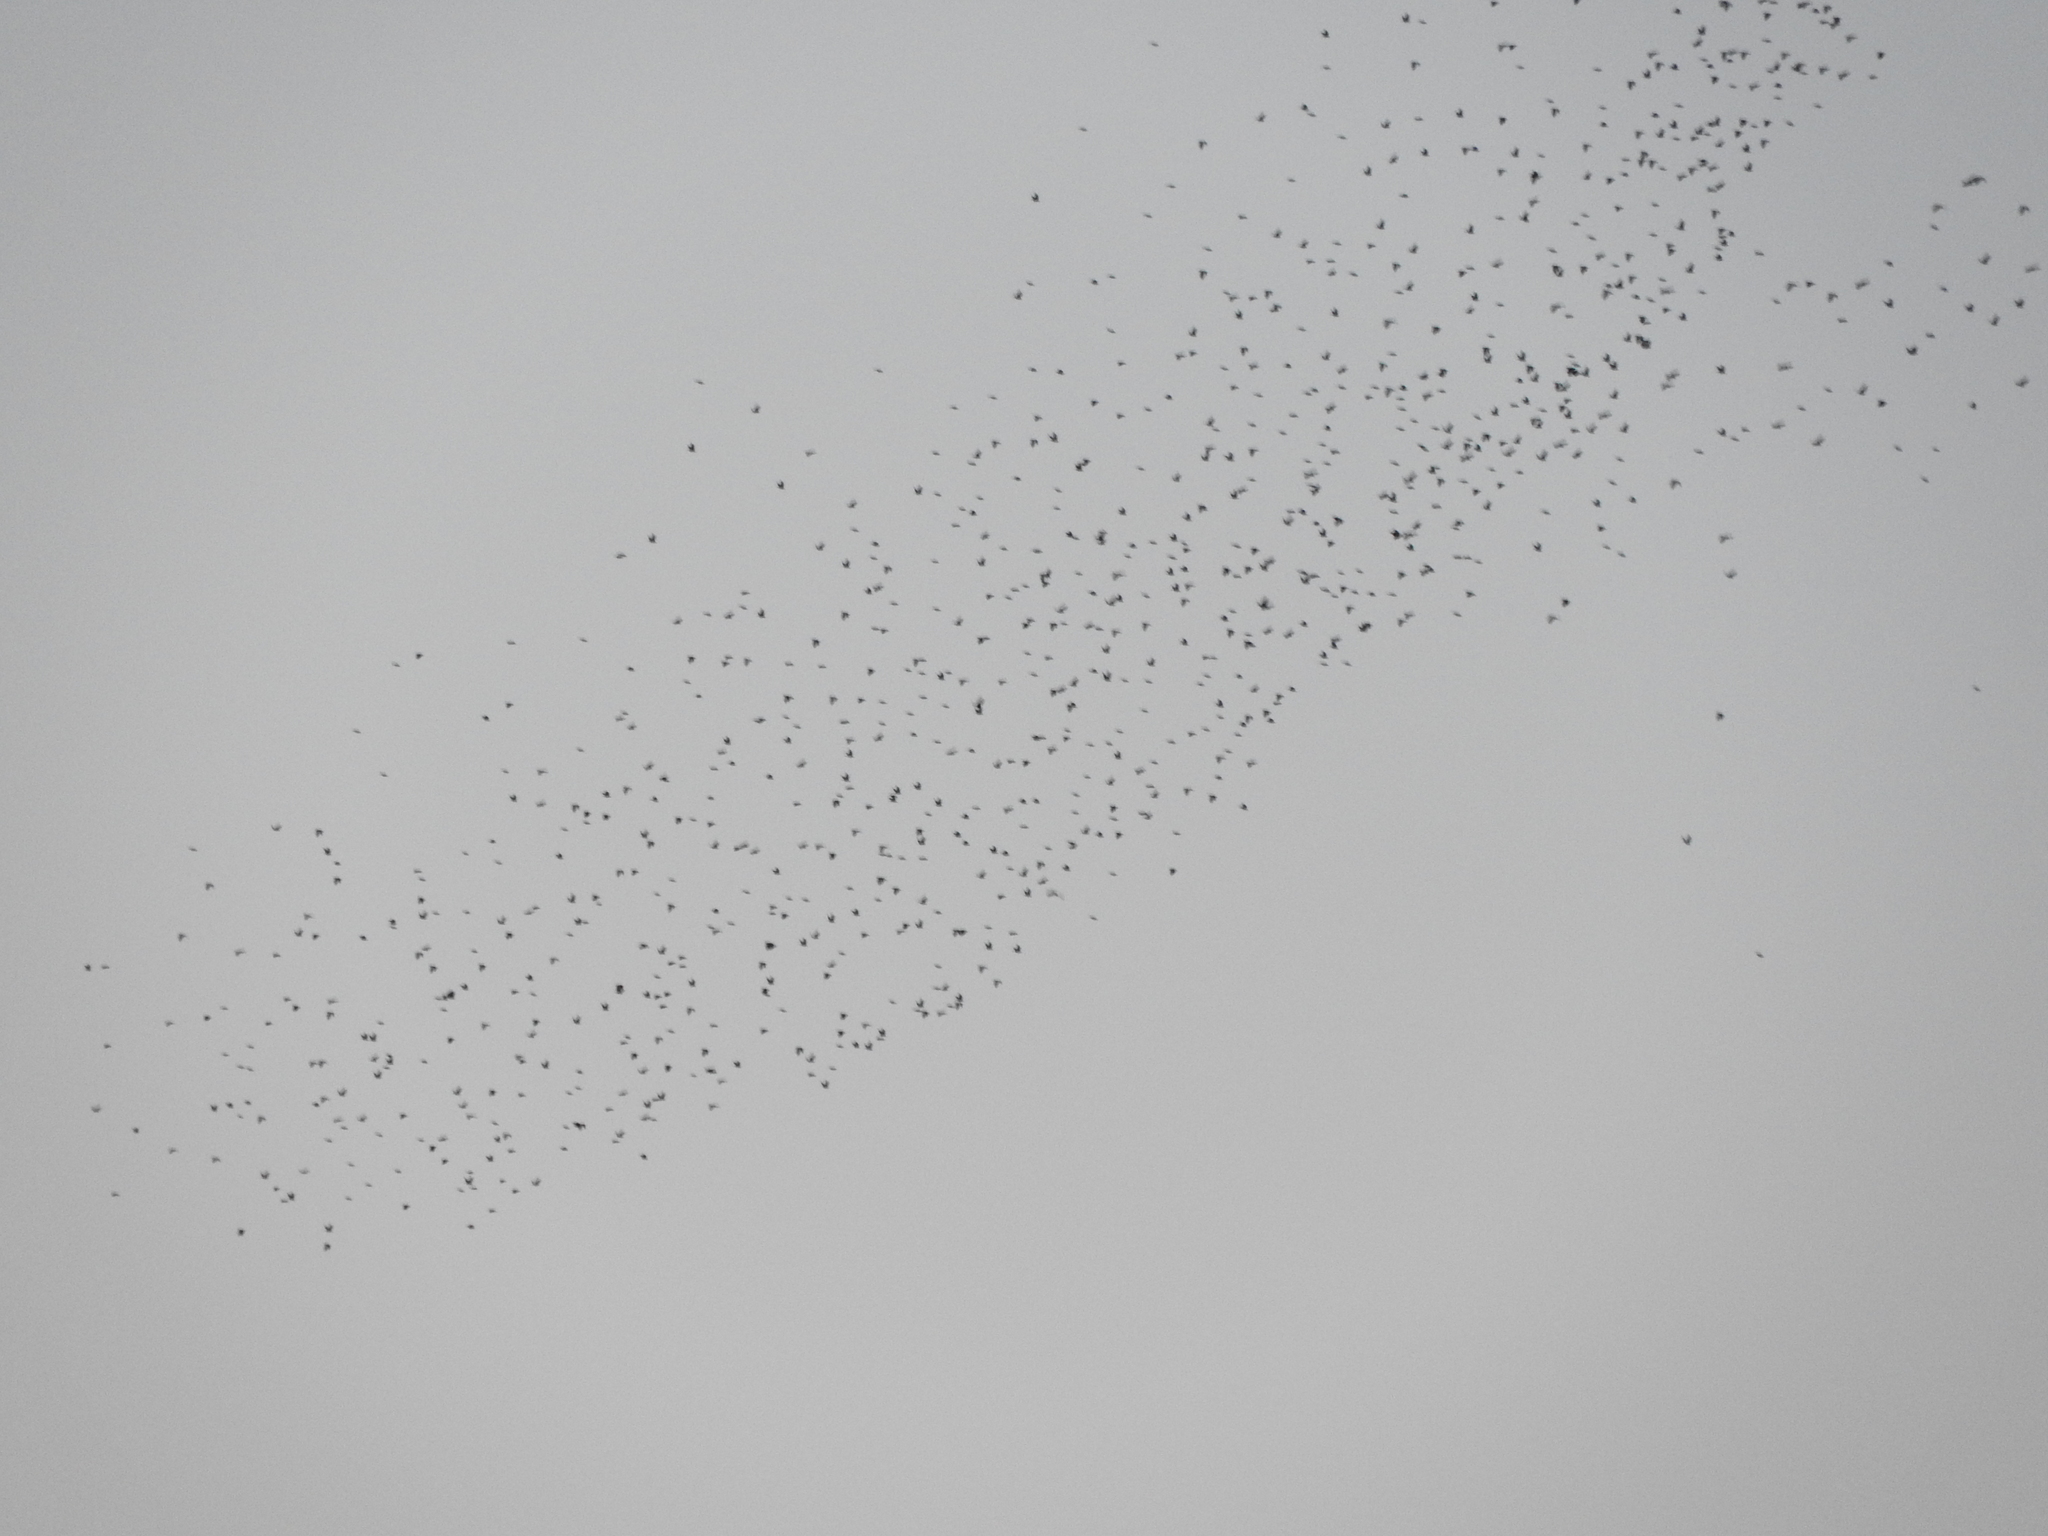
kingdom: Animalia
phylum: Chordata
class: Aves
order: Passeriformes
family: Icteridae
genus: Xanthocephalus
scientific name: Xanthocephalus xanthocephalus
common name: Yellow-headed blackbird
